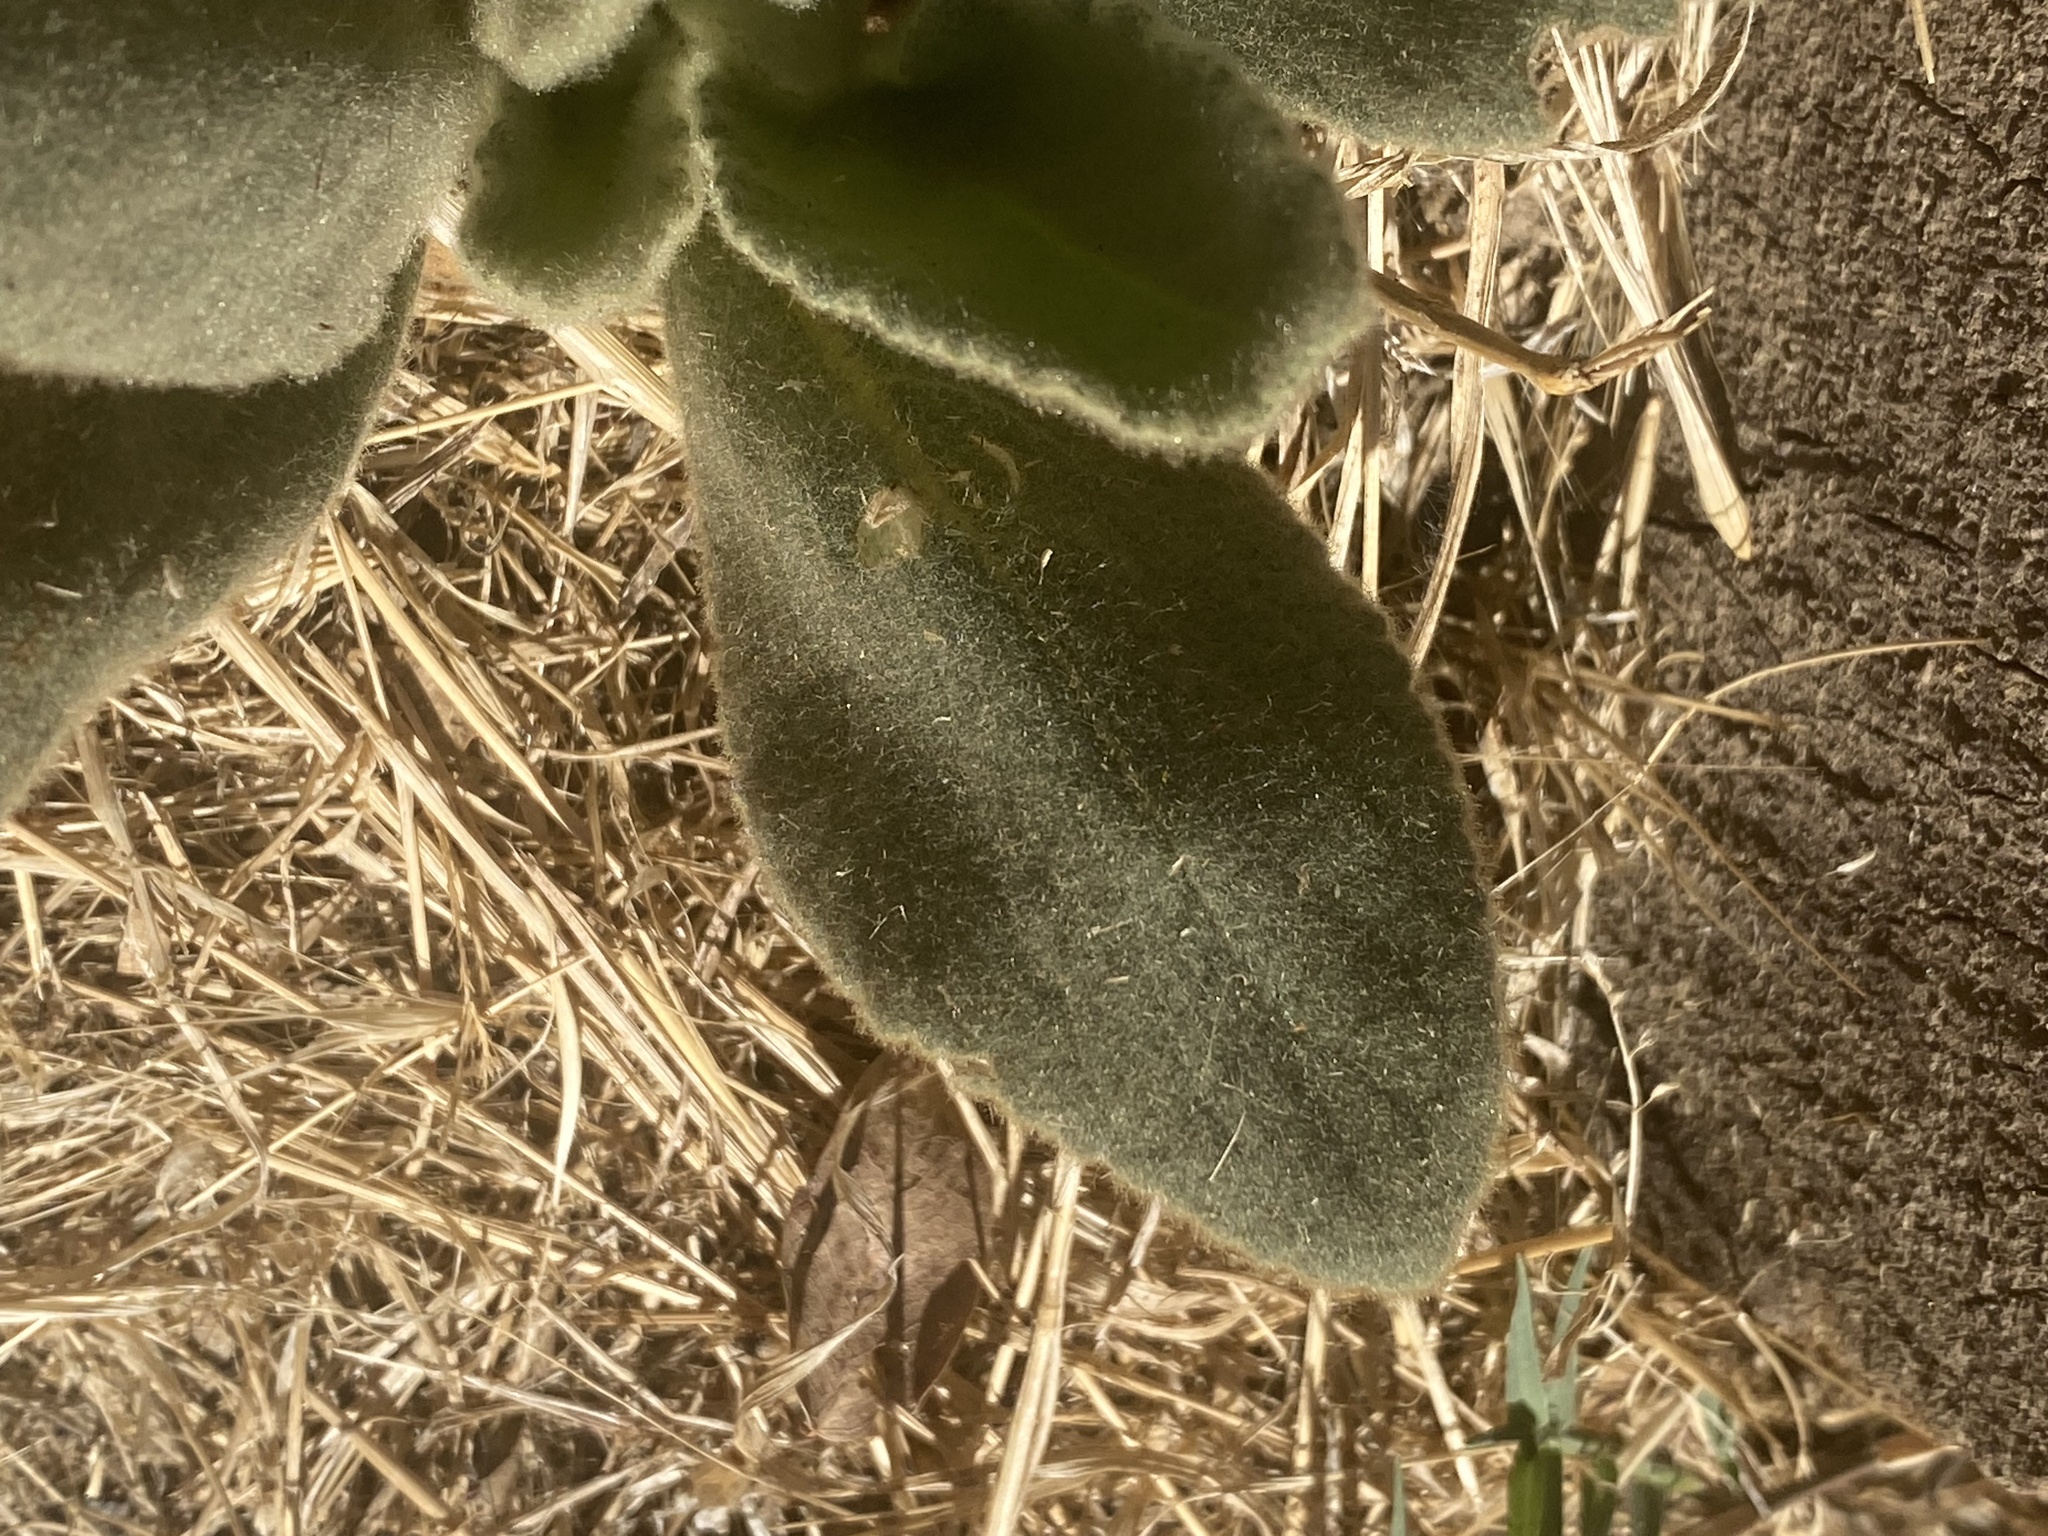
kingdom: Plantae
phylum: Tracheophyta
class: Magnoliopsida
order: Malpighiales
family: Euphorbiaceae
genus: Croton
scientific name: Croton setiger
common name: Dove weed
